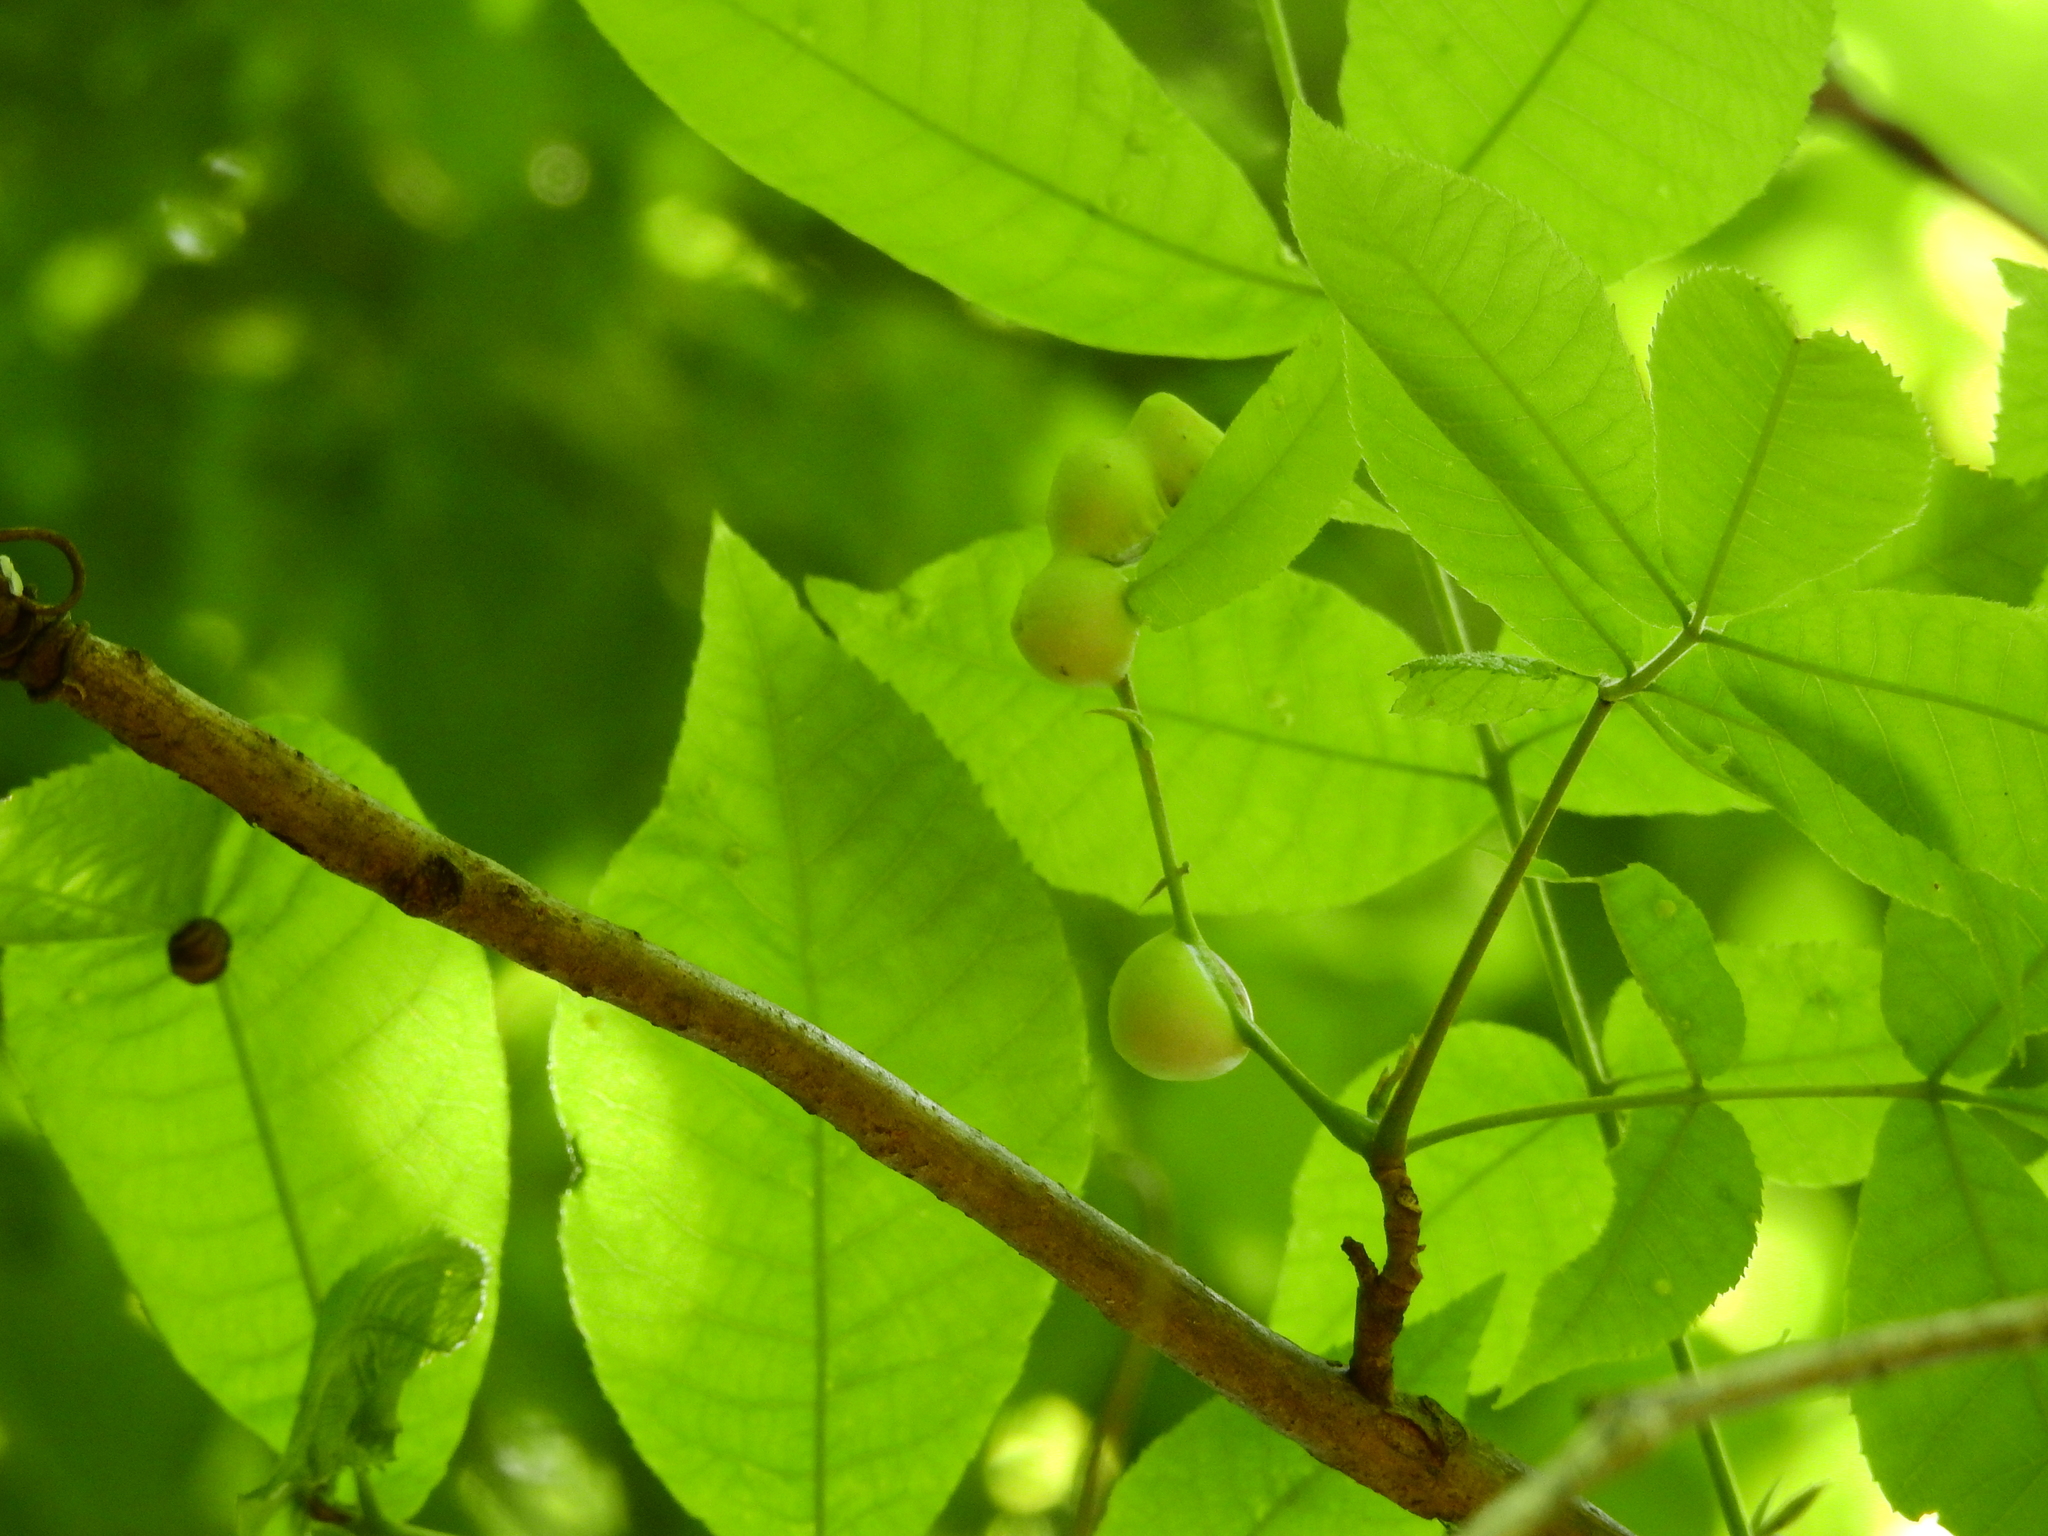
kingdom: Animalia
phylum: Arthropoda
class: Insecta
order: Hemiptera
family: Phylloxeridae
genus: Phylloxera
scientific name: Phylloxera caryaecaulis
